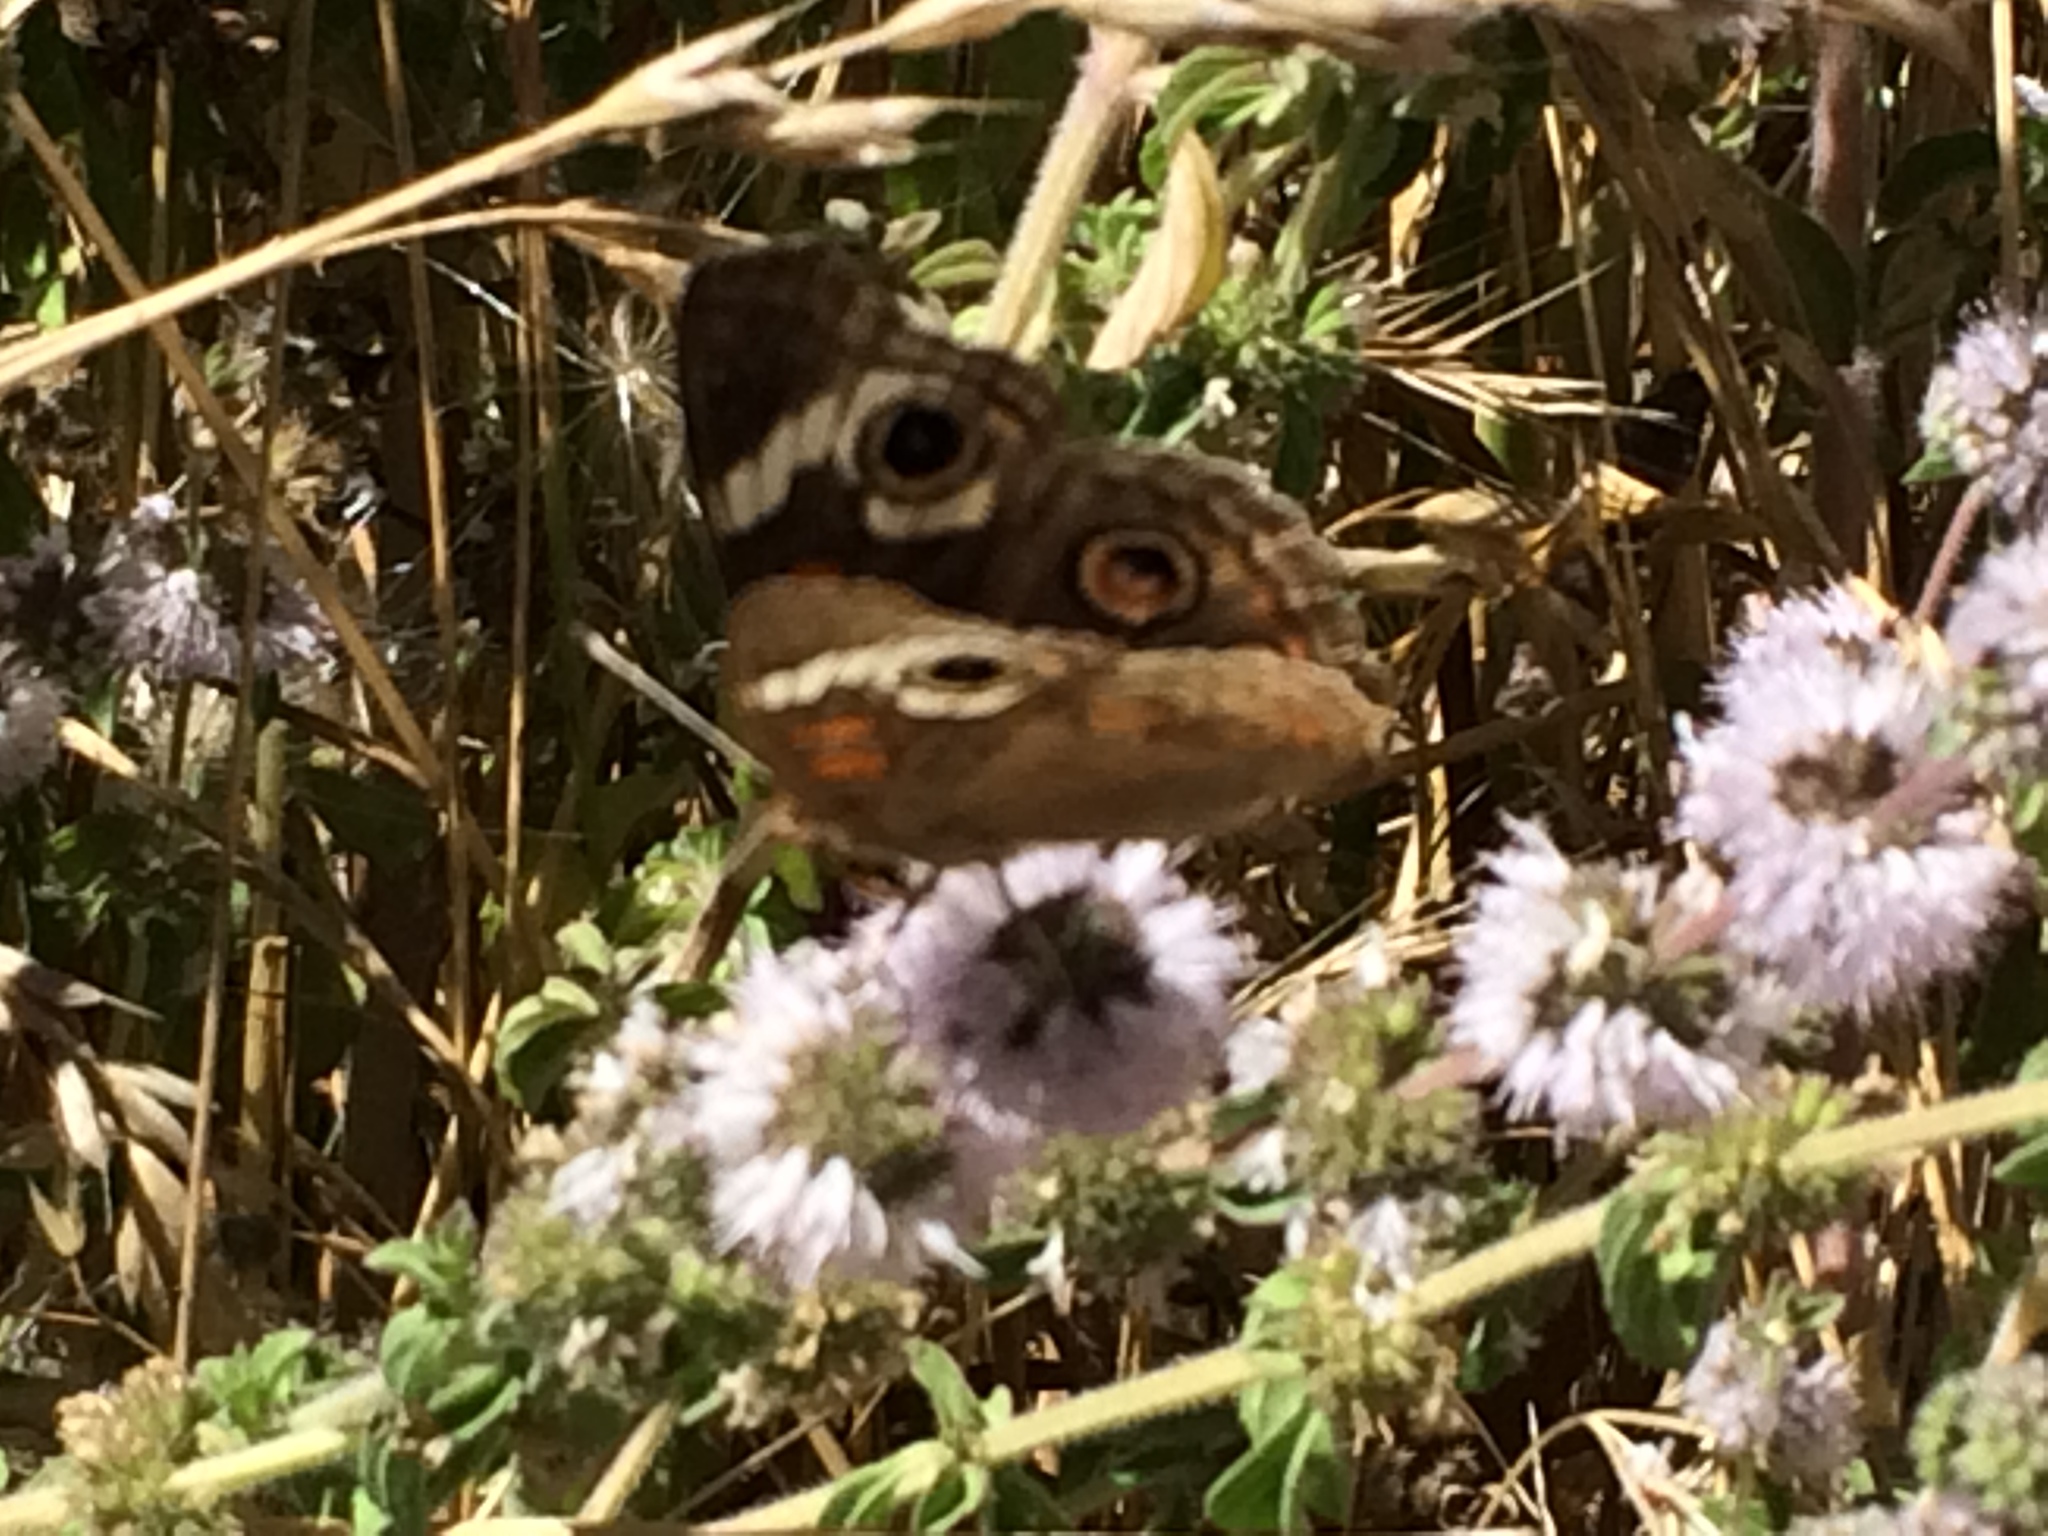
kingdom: Animalia
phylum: Arthropoda
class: Insecta
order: Lepidoptera
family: Nymphalidae
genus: Junonia
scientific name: Junonia grisea
